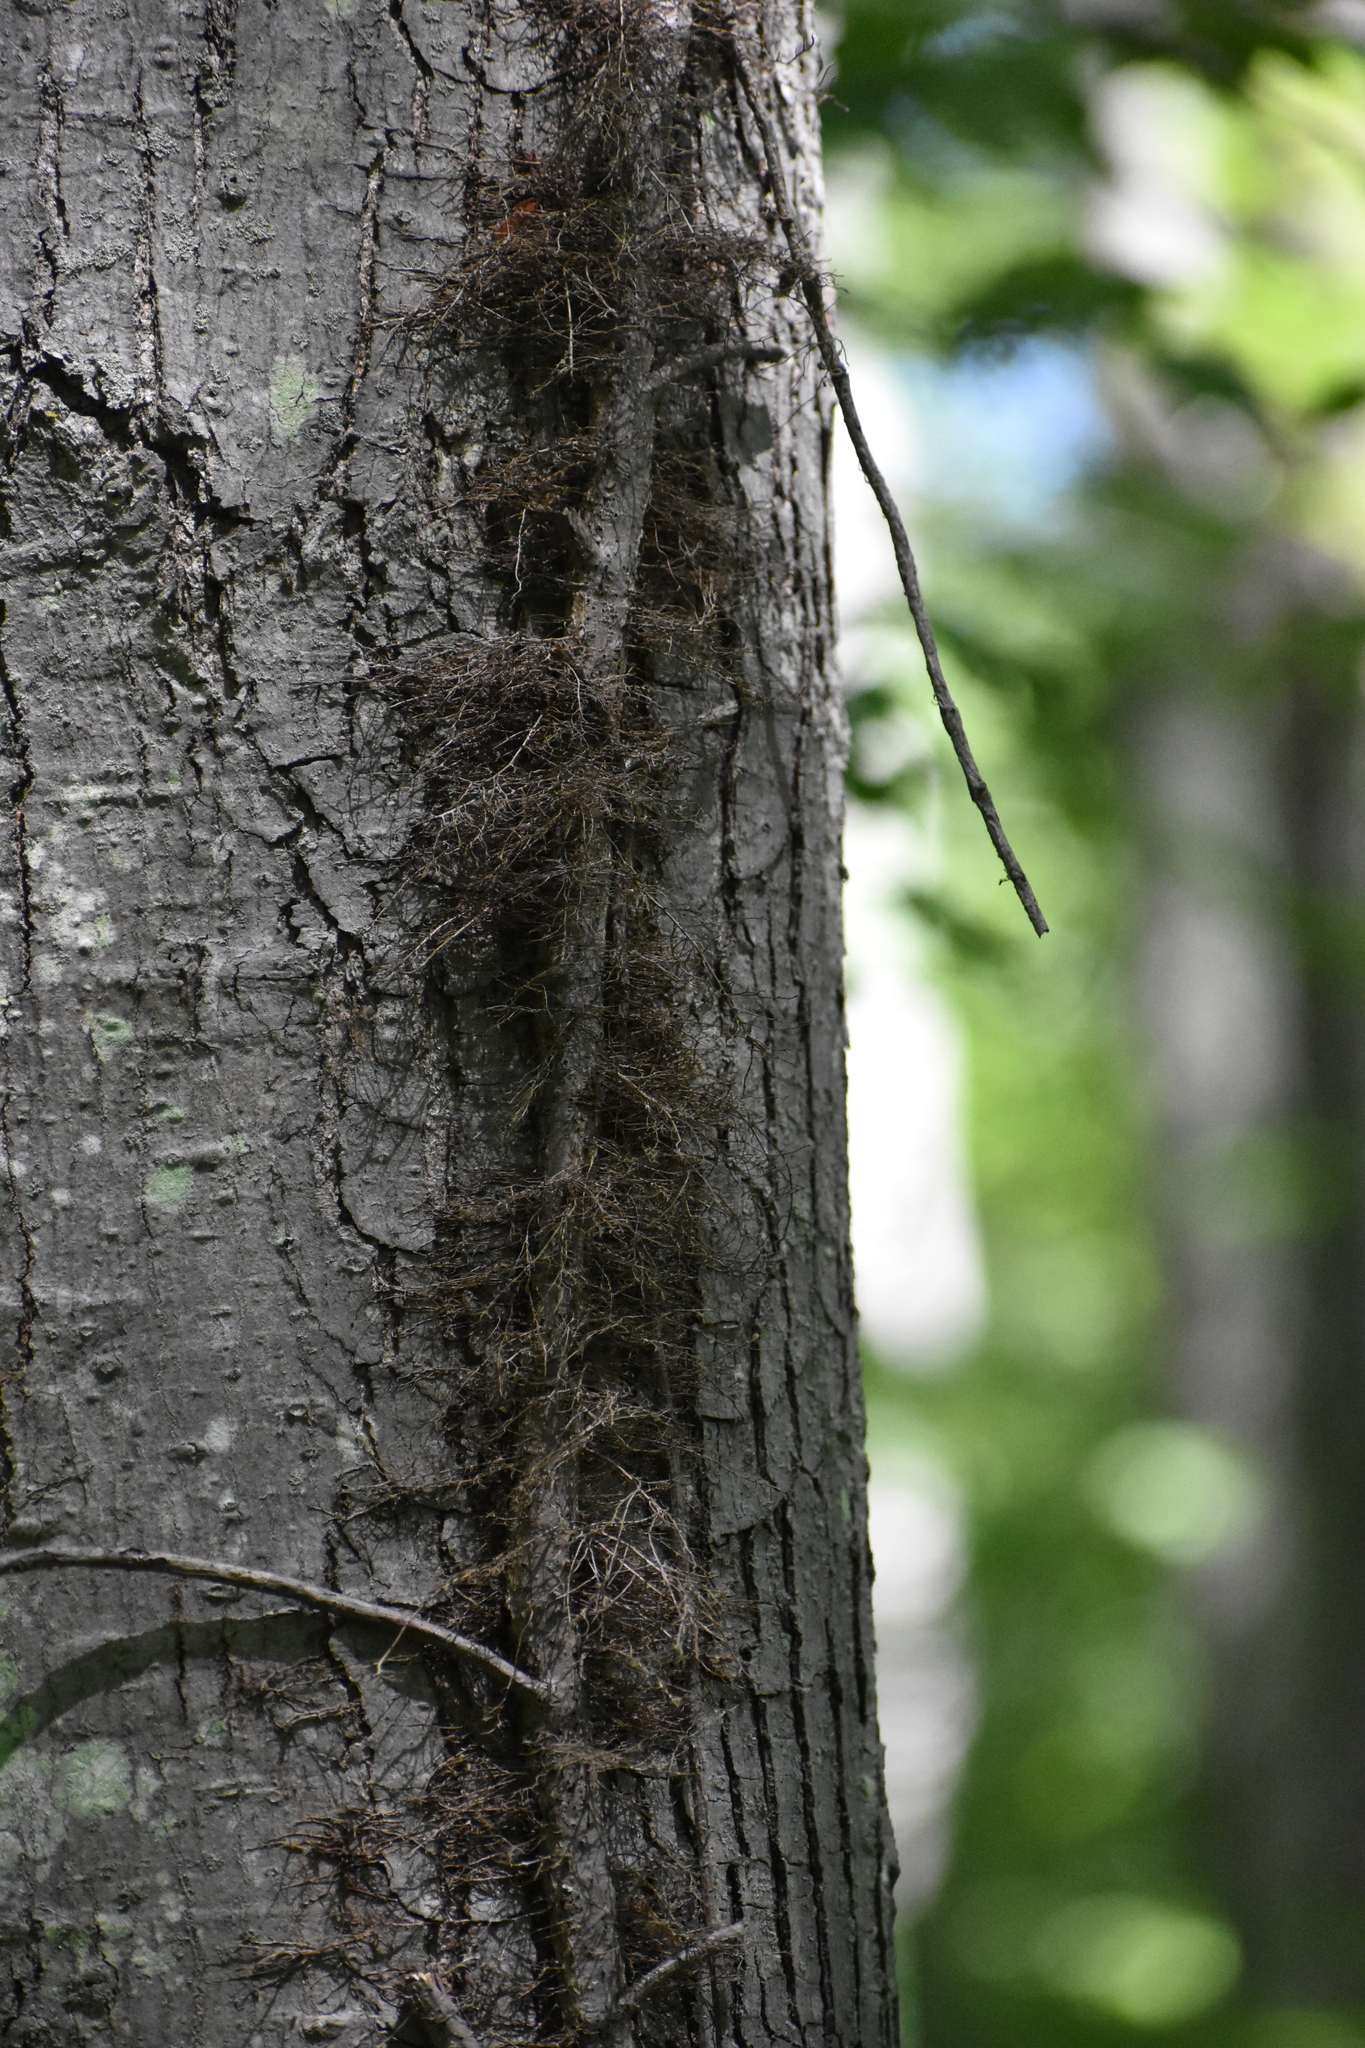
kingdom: Plantae
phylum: Tracheophyta
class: Magnoliopsida
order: Sapindales
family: Anacardiaceae
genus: Toxicodendron
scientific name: Toxicodendron radicans
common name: Poison ivy
